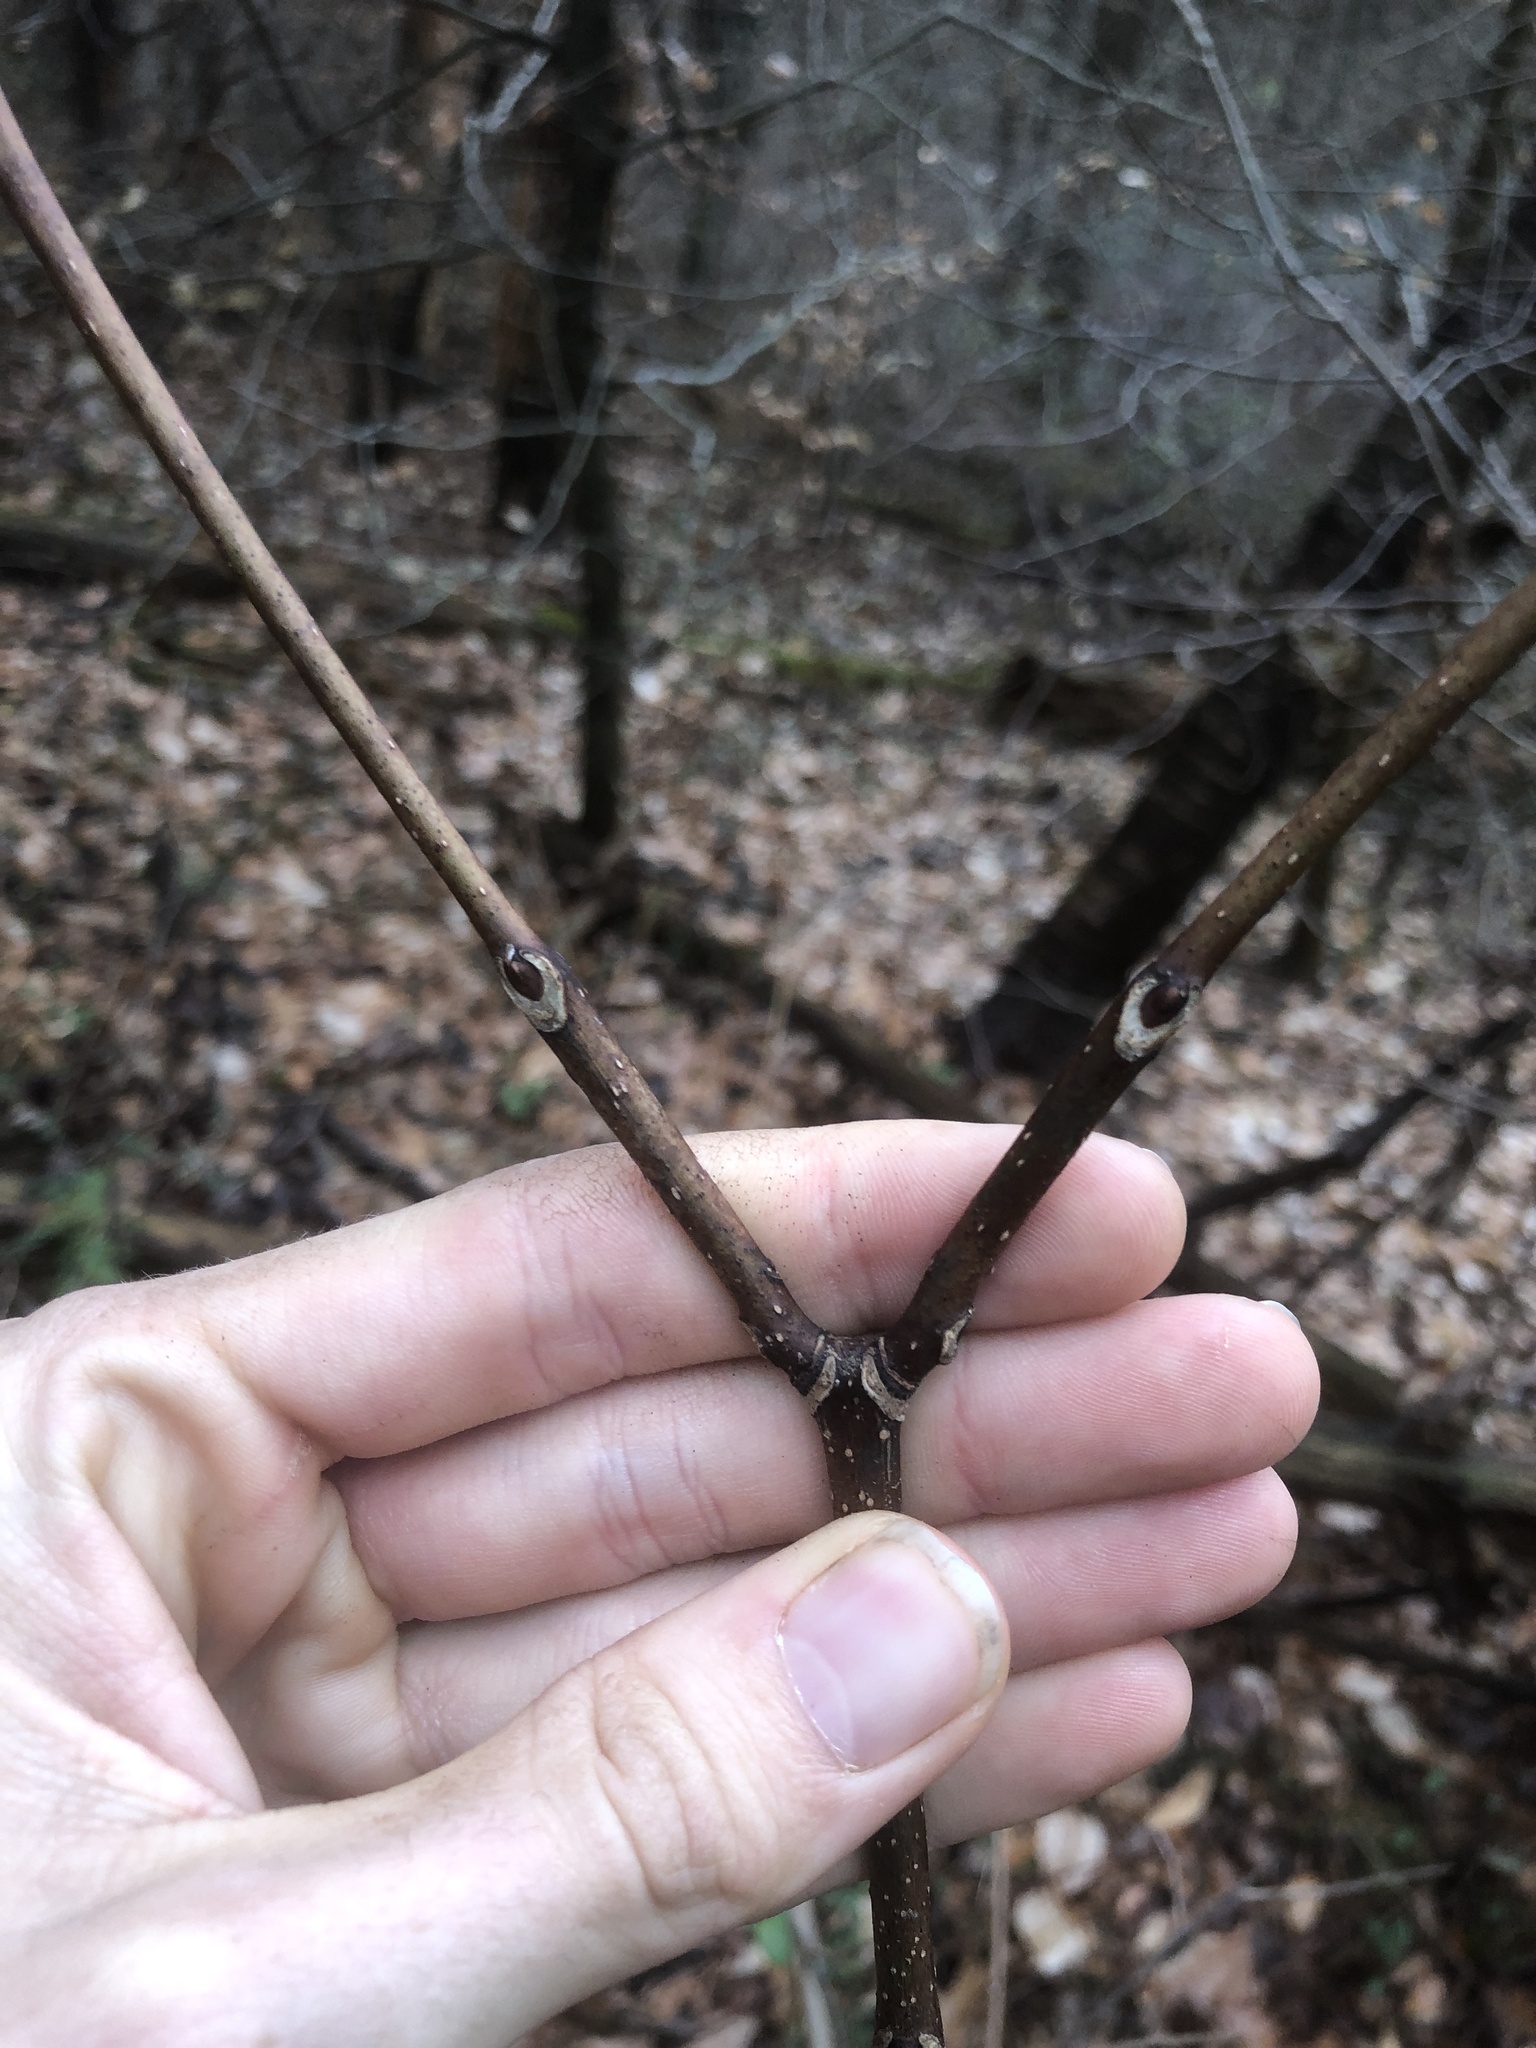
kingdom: Plantae
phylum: Tracheophyta
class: Magnoliopsida
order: Sapindales
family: Rutaceae
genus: Phellodendron
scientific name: Phellodendron amurense
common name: Amur corktree
